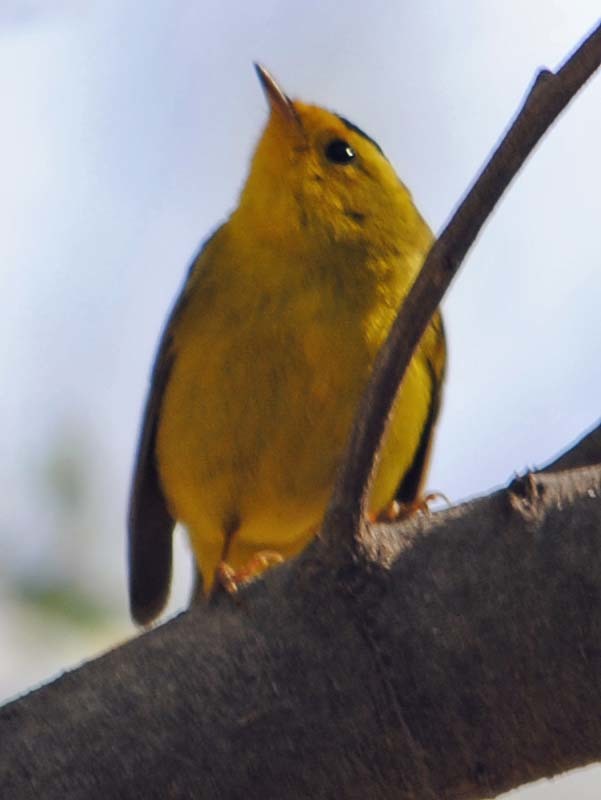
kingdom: Animalia
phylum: Chordata
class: Aves
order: Passeriformes
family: Parulidae
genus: Cardellina
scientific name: Cardellina pusilla
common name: Wilson's warbler
